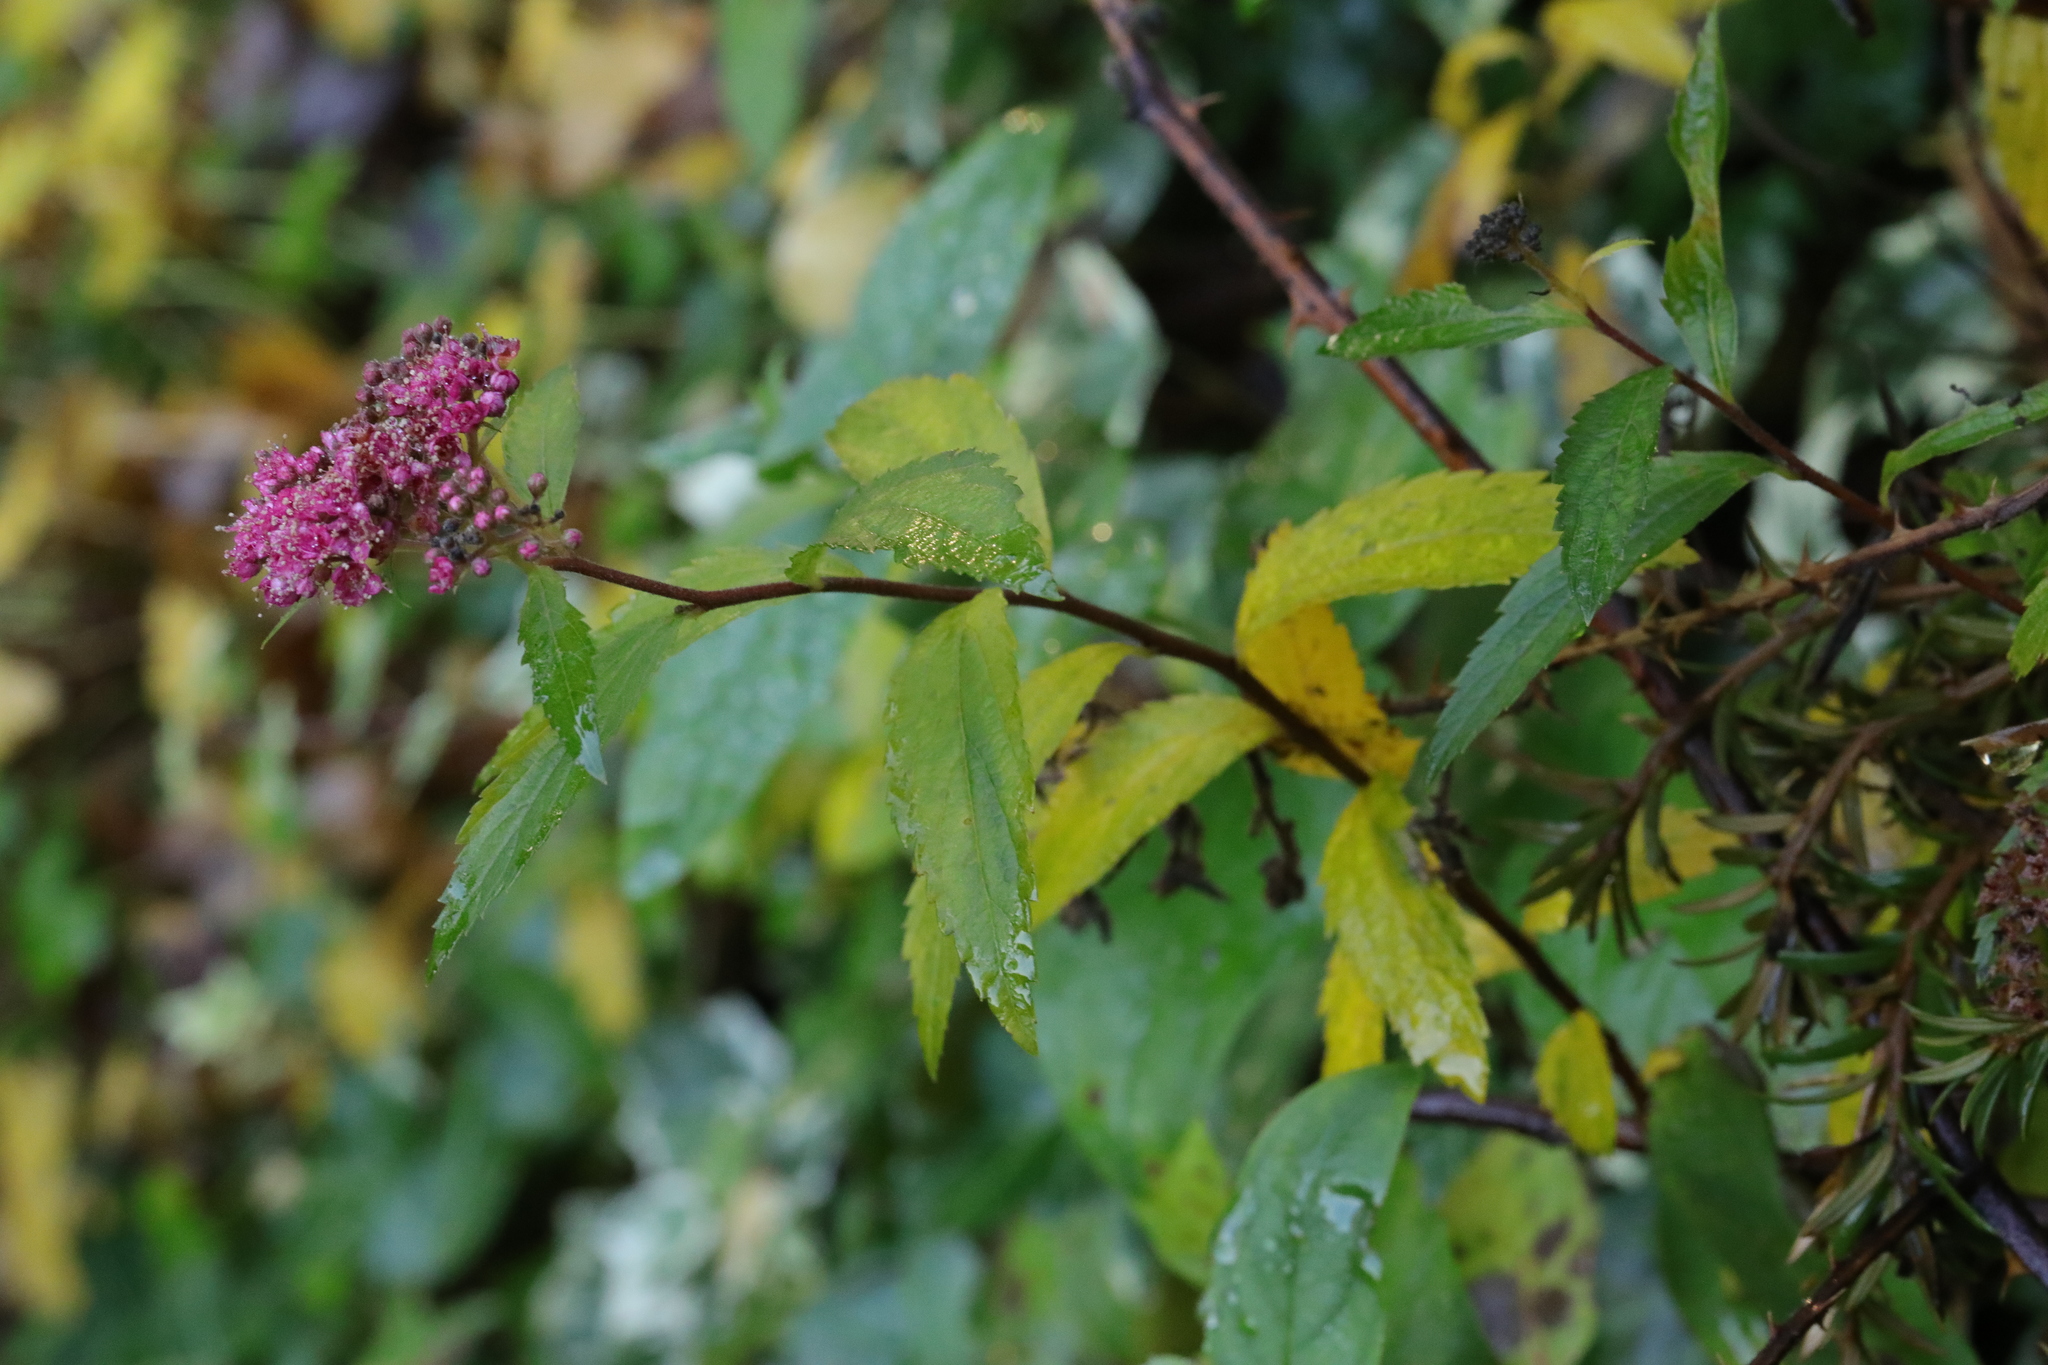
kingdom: Plantae
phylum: Tracheophyta
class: Magnoliopsida
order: Rosales
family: Rosaceae
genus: Spiraea
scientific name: Spiraea japonica
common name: Japanese spiraea
